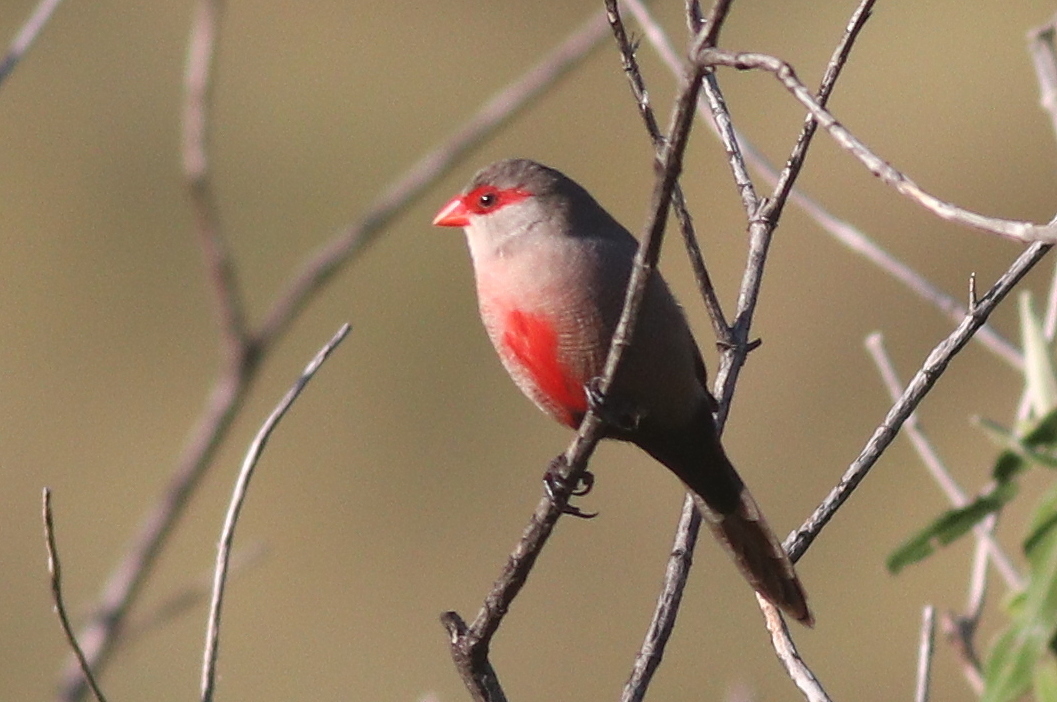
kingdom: Animalia
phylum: Chordata
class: Aves
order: Passeriformes
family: Estrildidae
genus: Estrilda
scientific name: Estrilda astrild
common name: Common waxbill
